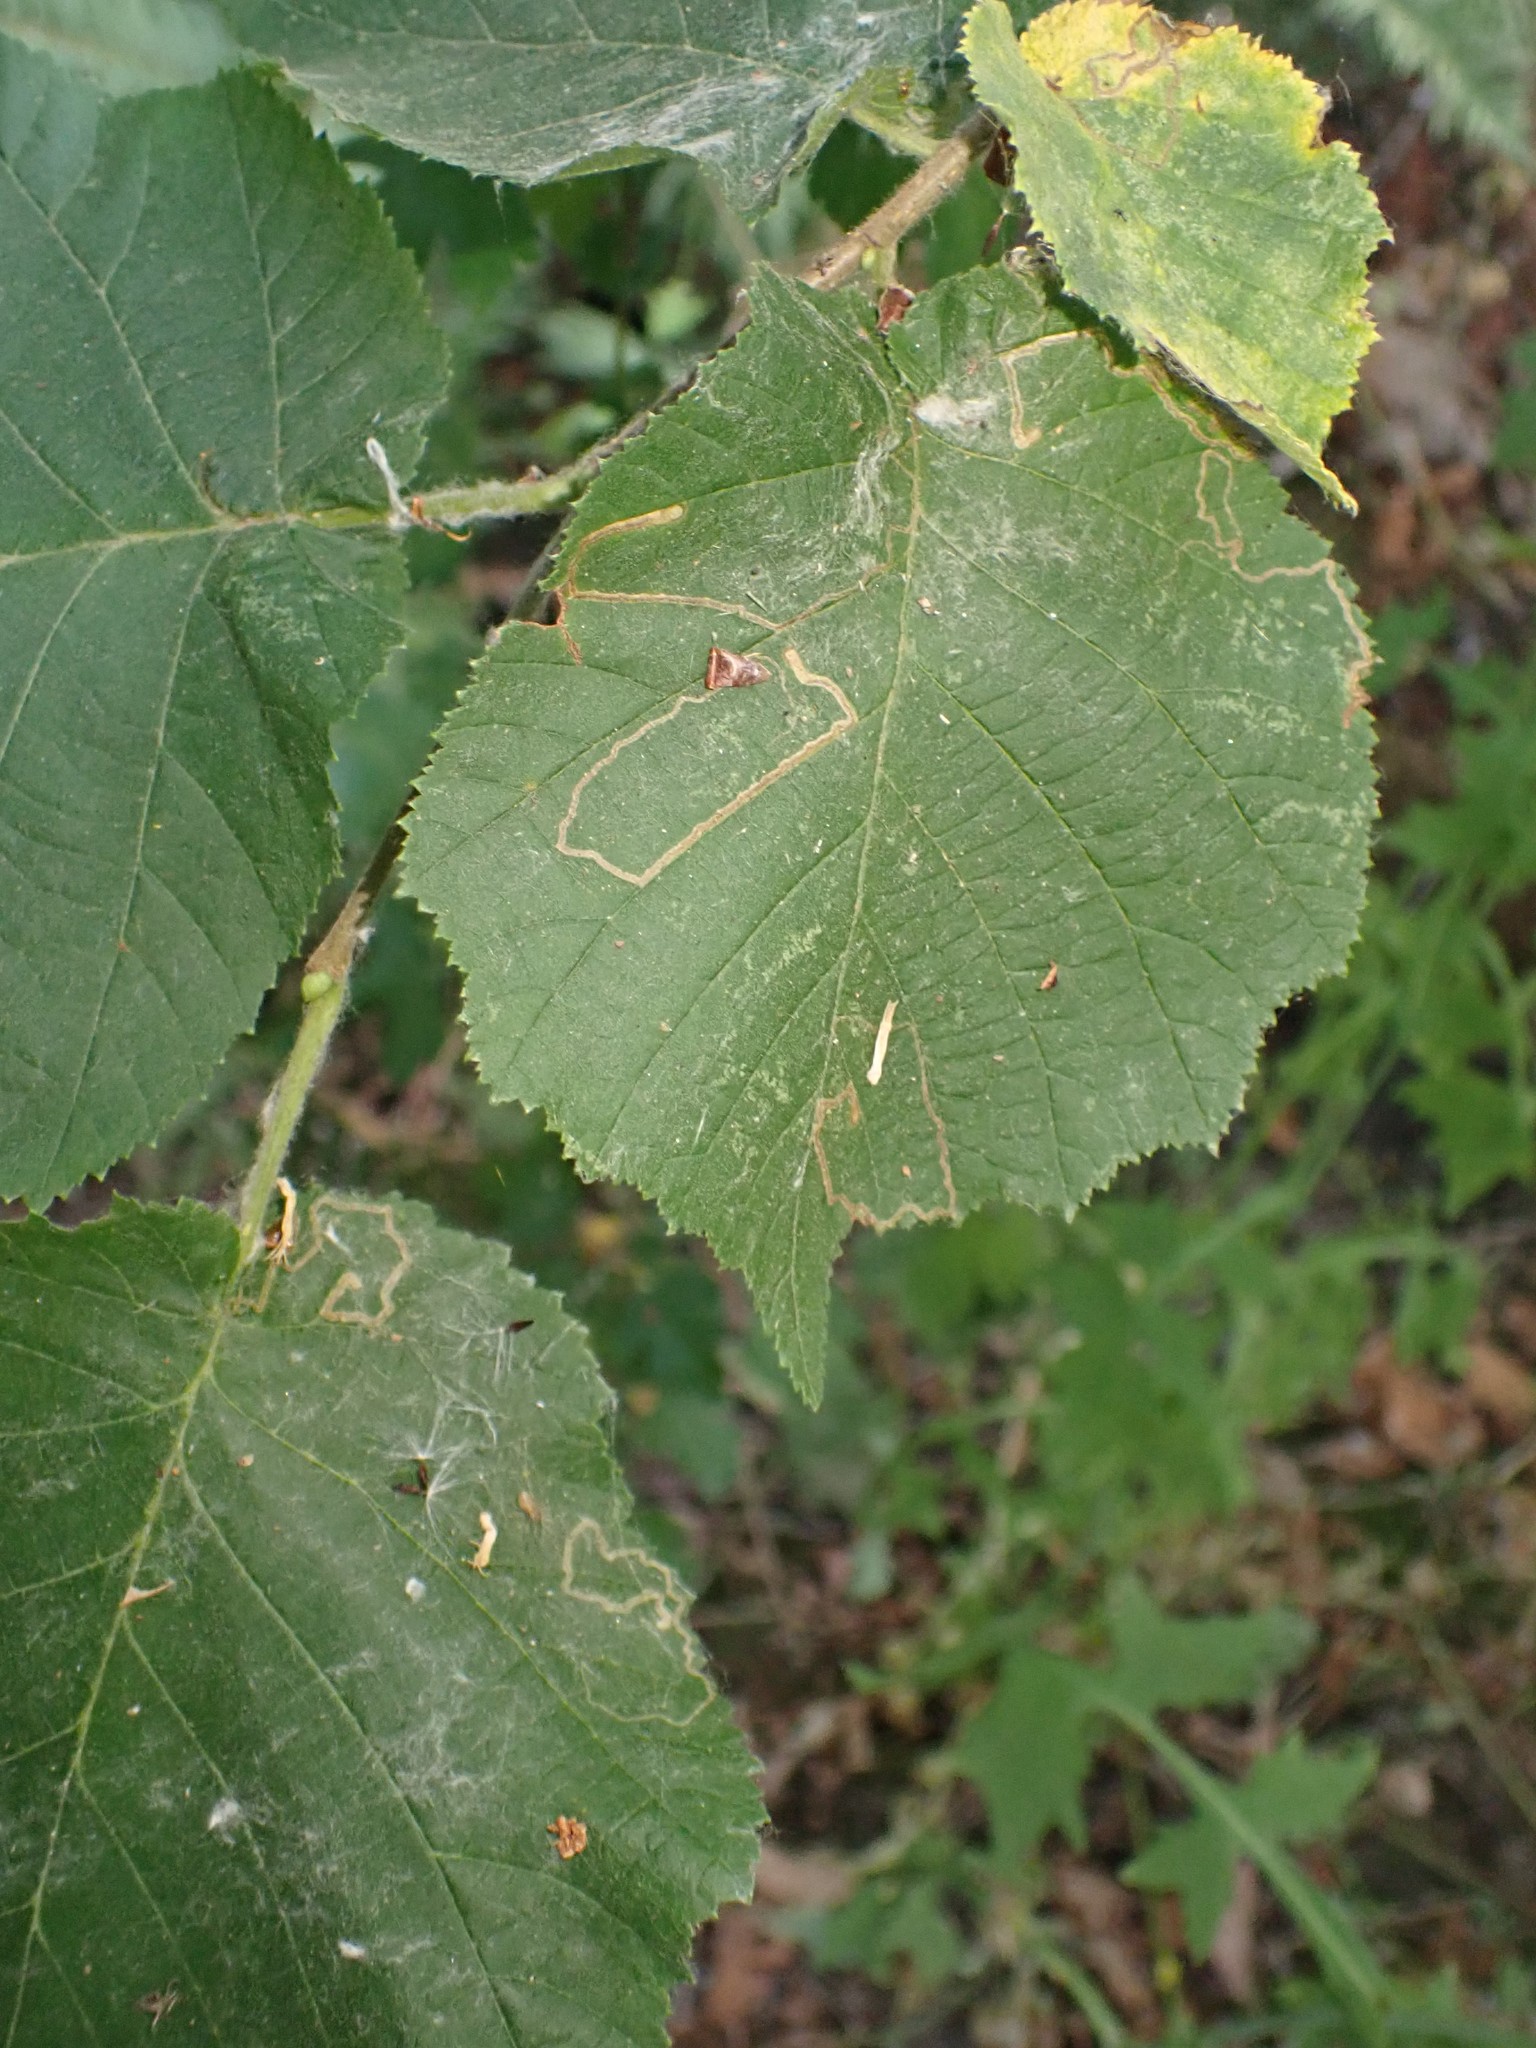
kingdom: Animalia
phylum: Arthropoda
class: Insecta
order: Lepidoptera
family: Nepticulidae
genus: Stigmella
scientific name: Stigmella microtheriella
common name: Nut-tree pigmy
